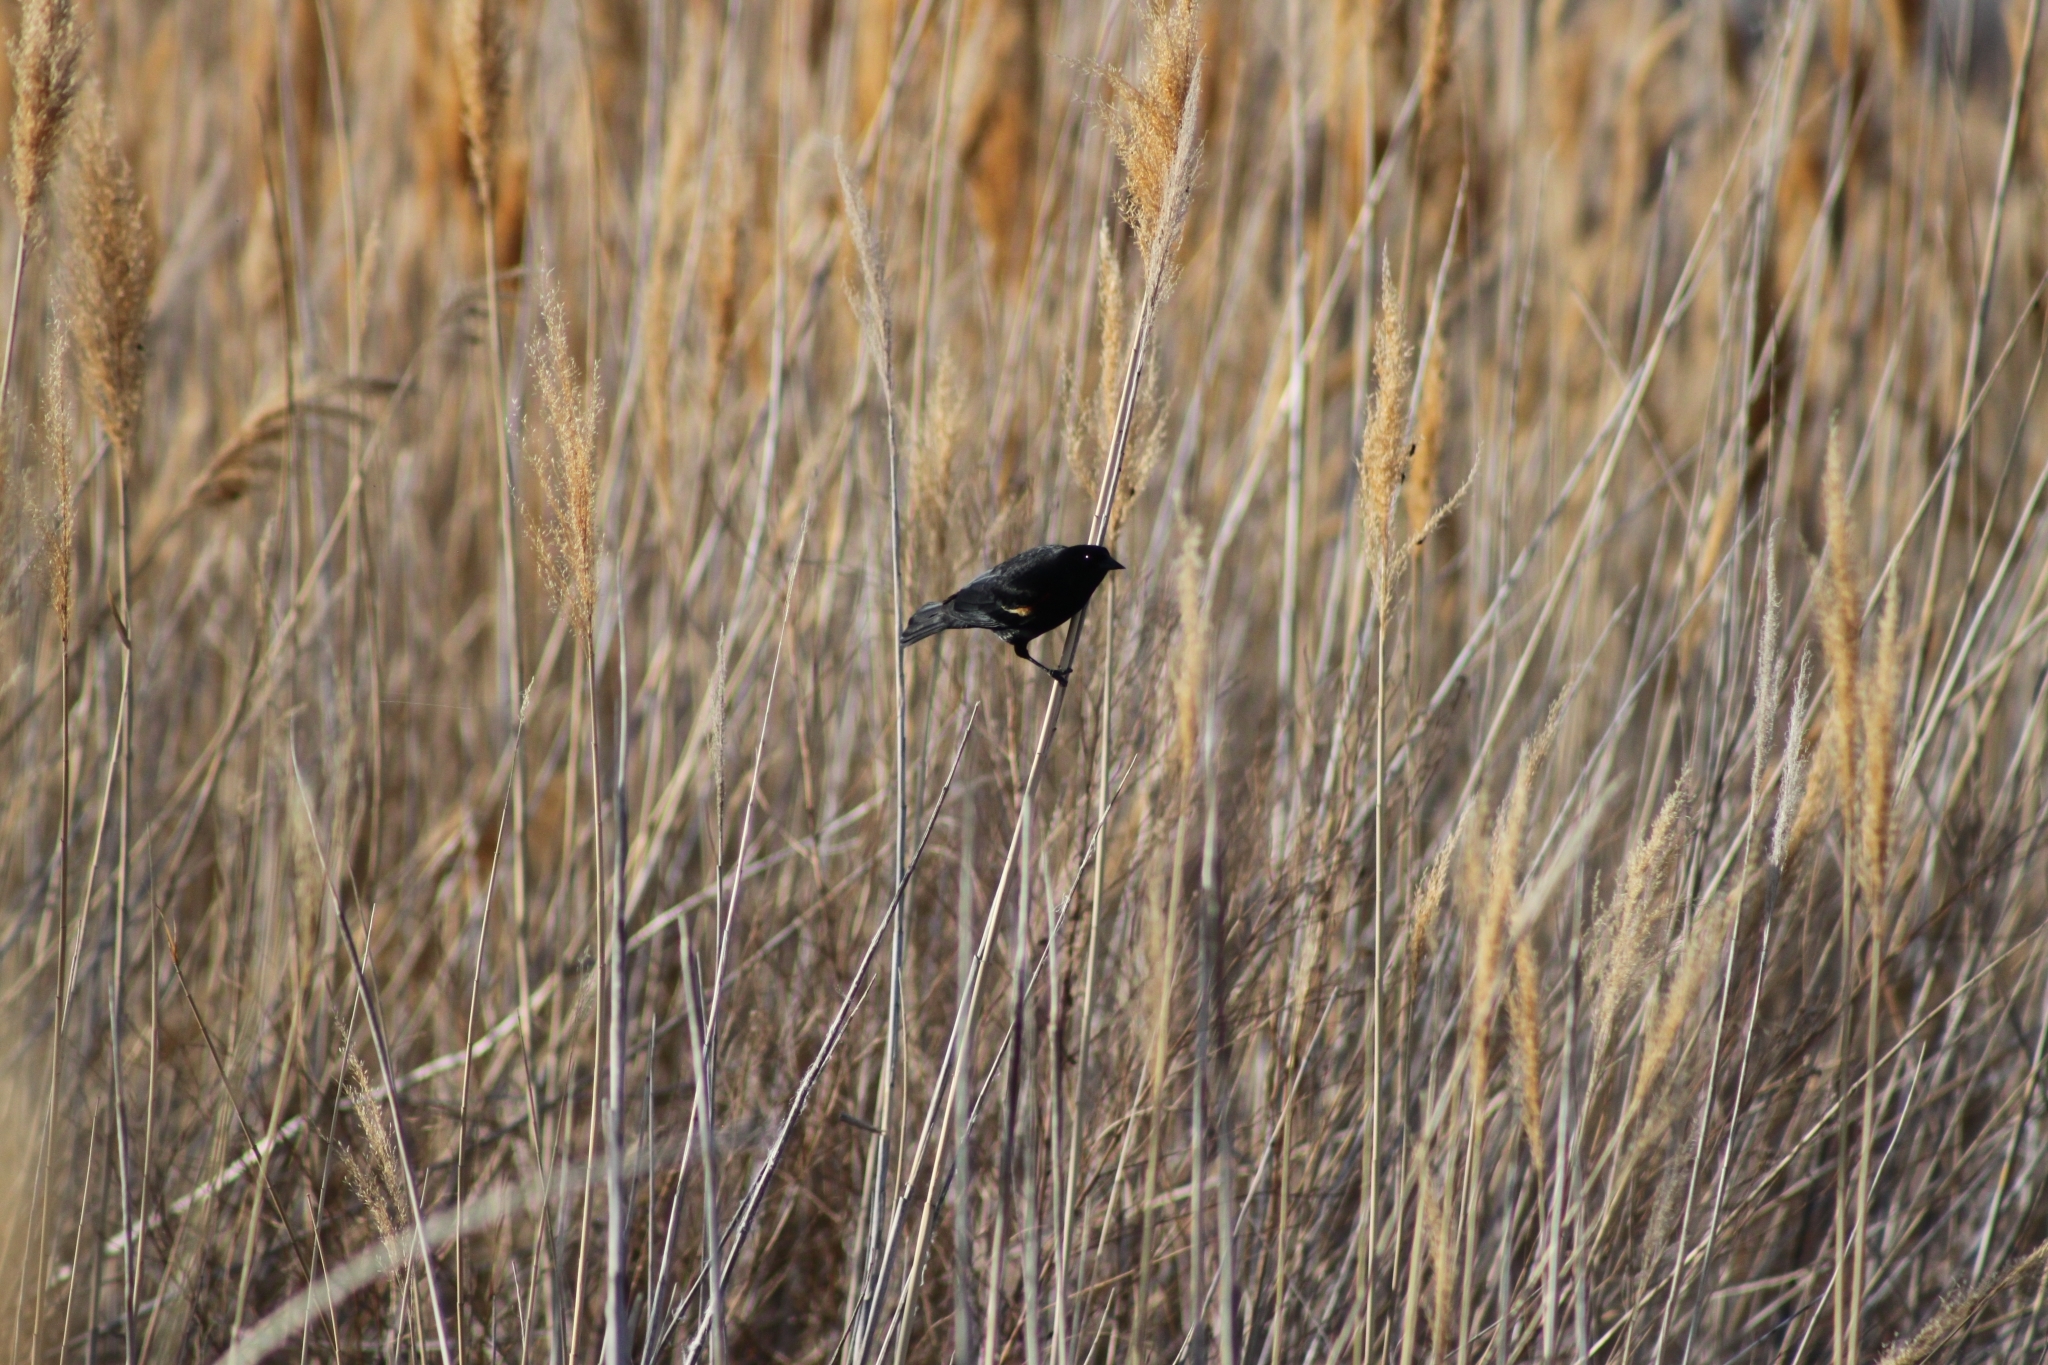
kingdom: Animalia
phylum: Chordata
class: Aves
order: Passeriformes
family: Icteridae
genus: Agelaius
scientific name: Agelaius phoeniceus
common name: Red-winged blackbird
